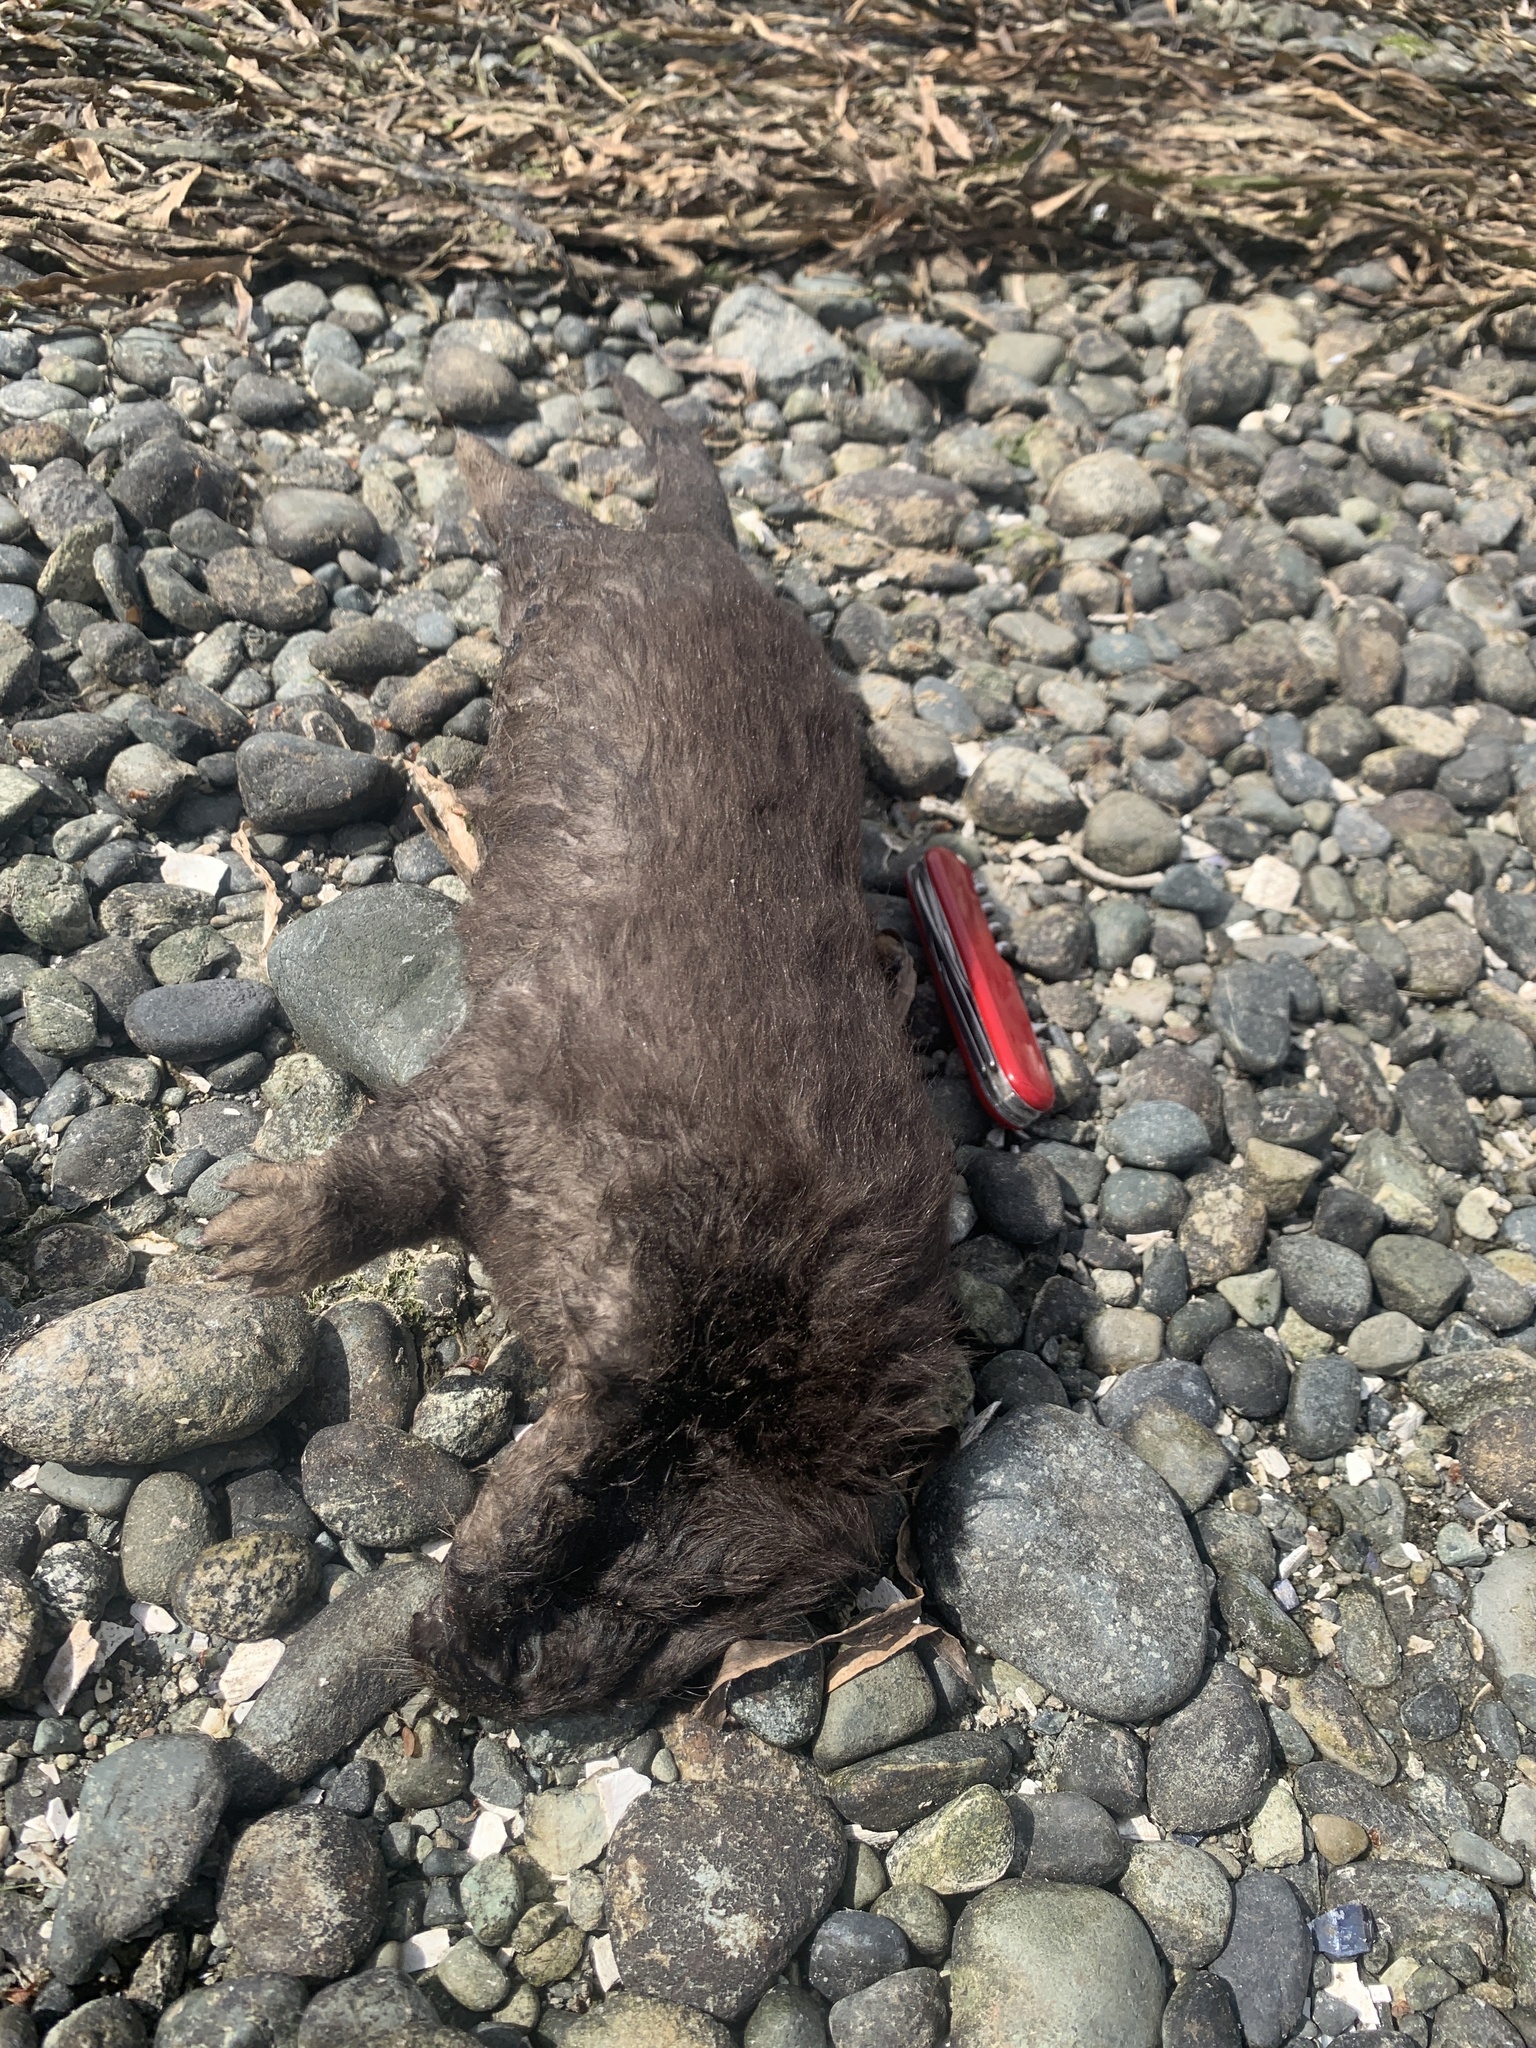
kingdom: Animalia
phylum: Chordata
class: Mammalia
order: Carnivora
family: Mustelidae
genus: Mustela
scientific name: Mustela
